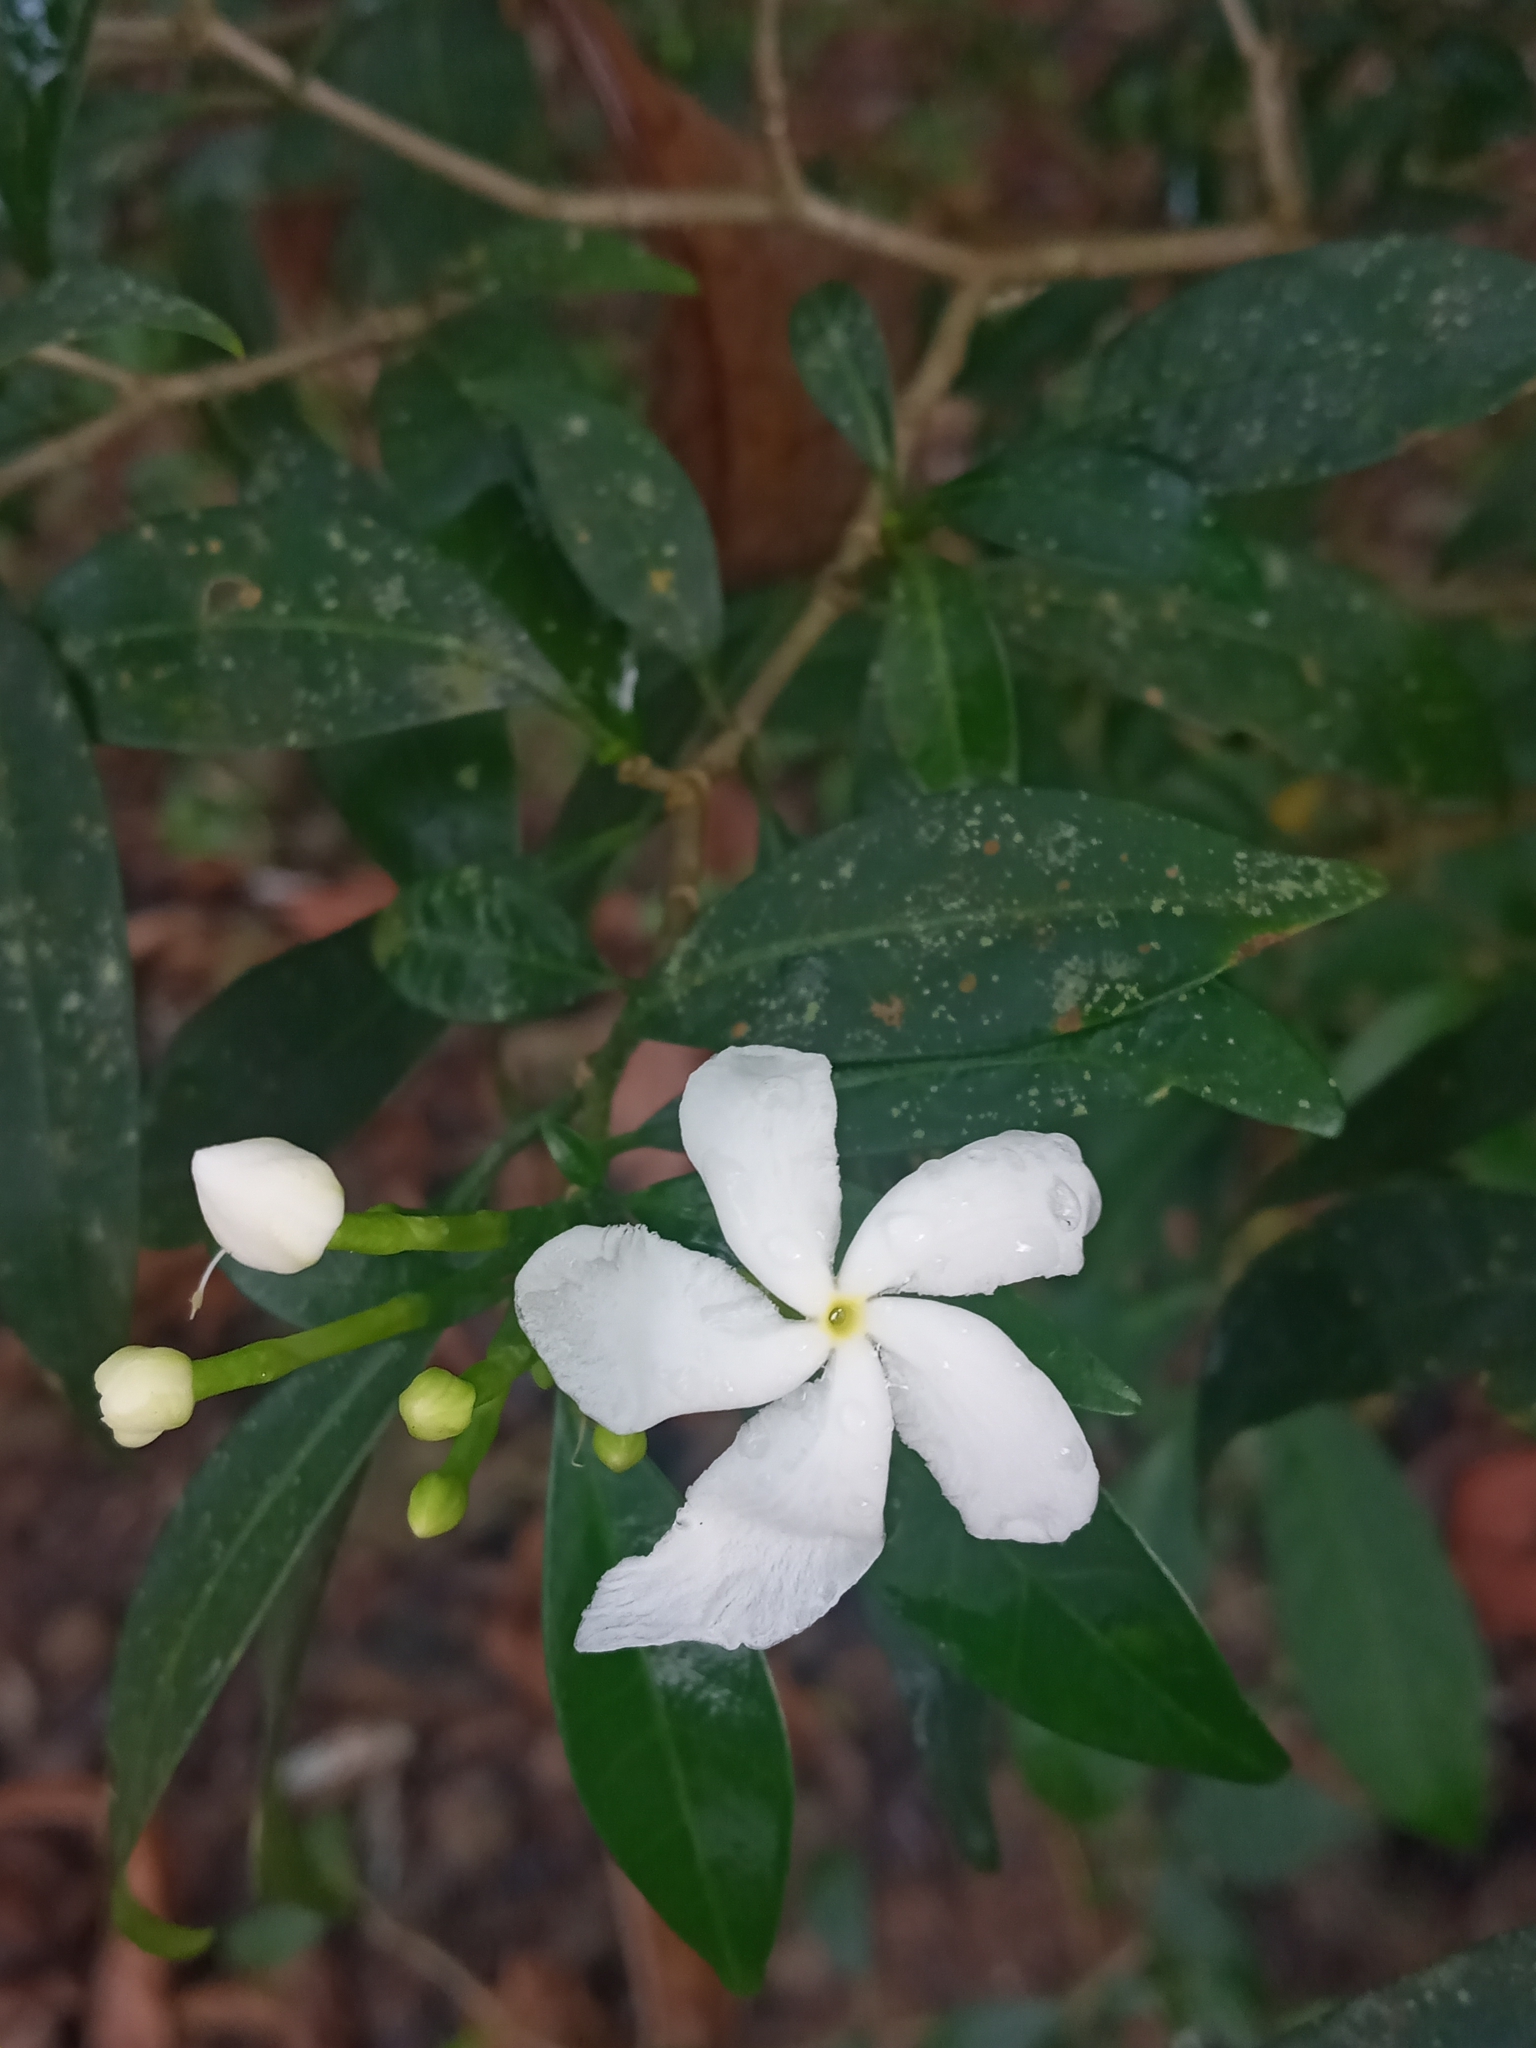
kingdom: Plantae
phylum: Tracheophyta
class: Magnoliopsida
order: Gentianales
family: Apocynaceae
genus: Tabernaemontana
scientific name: Tabernaemontana divaricata
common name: Pinwheelflower
